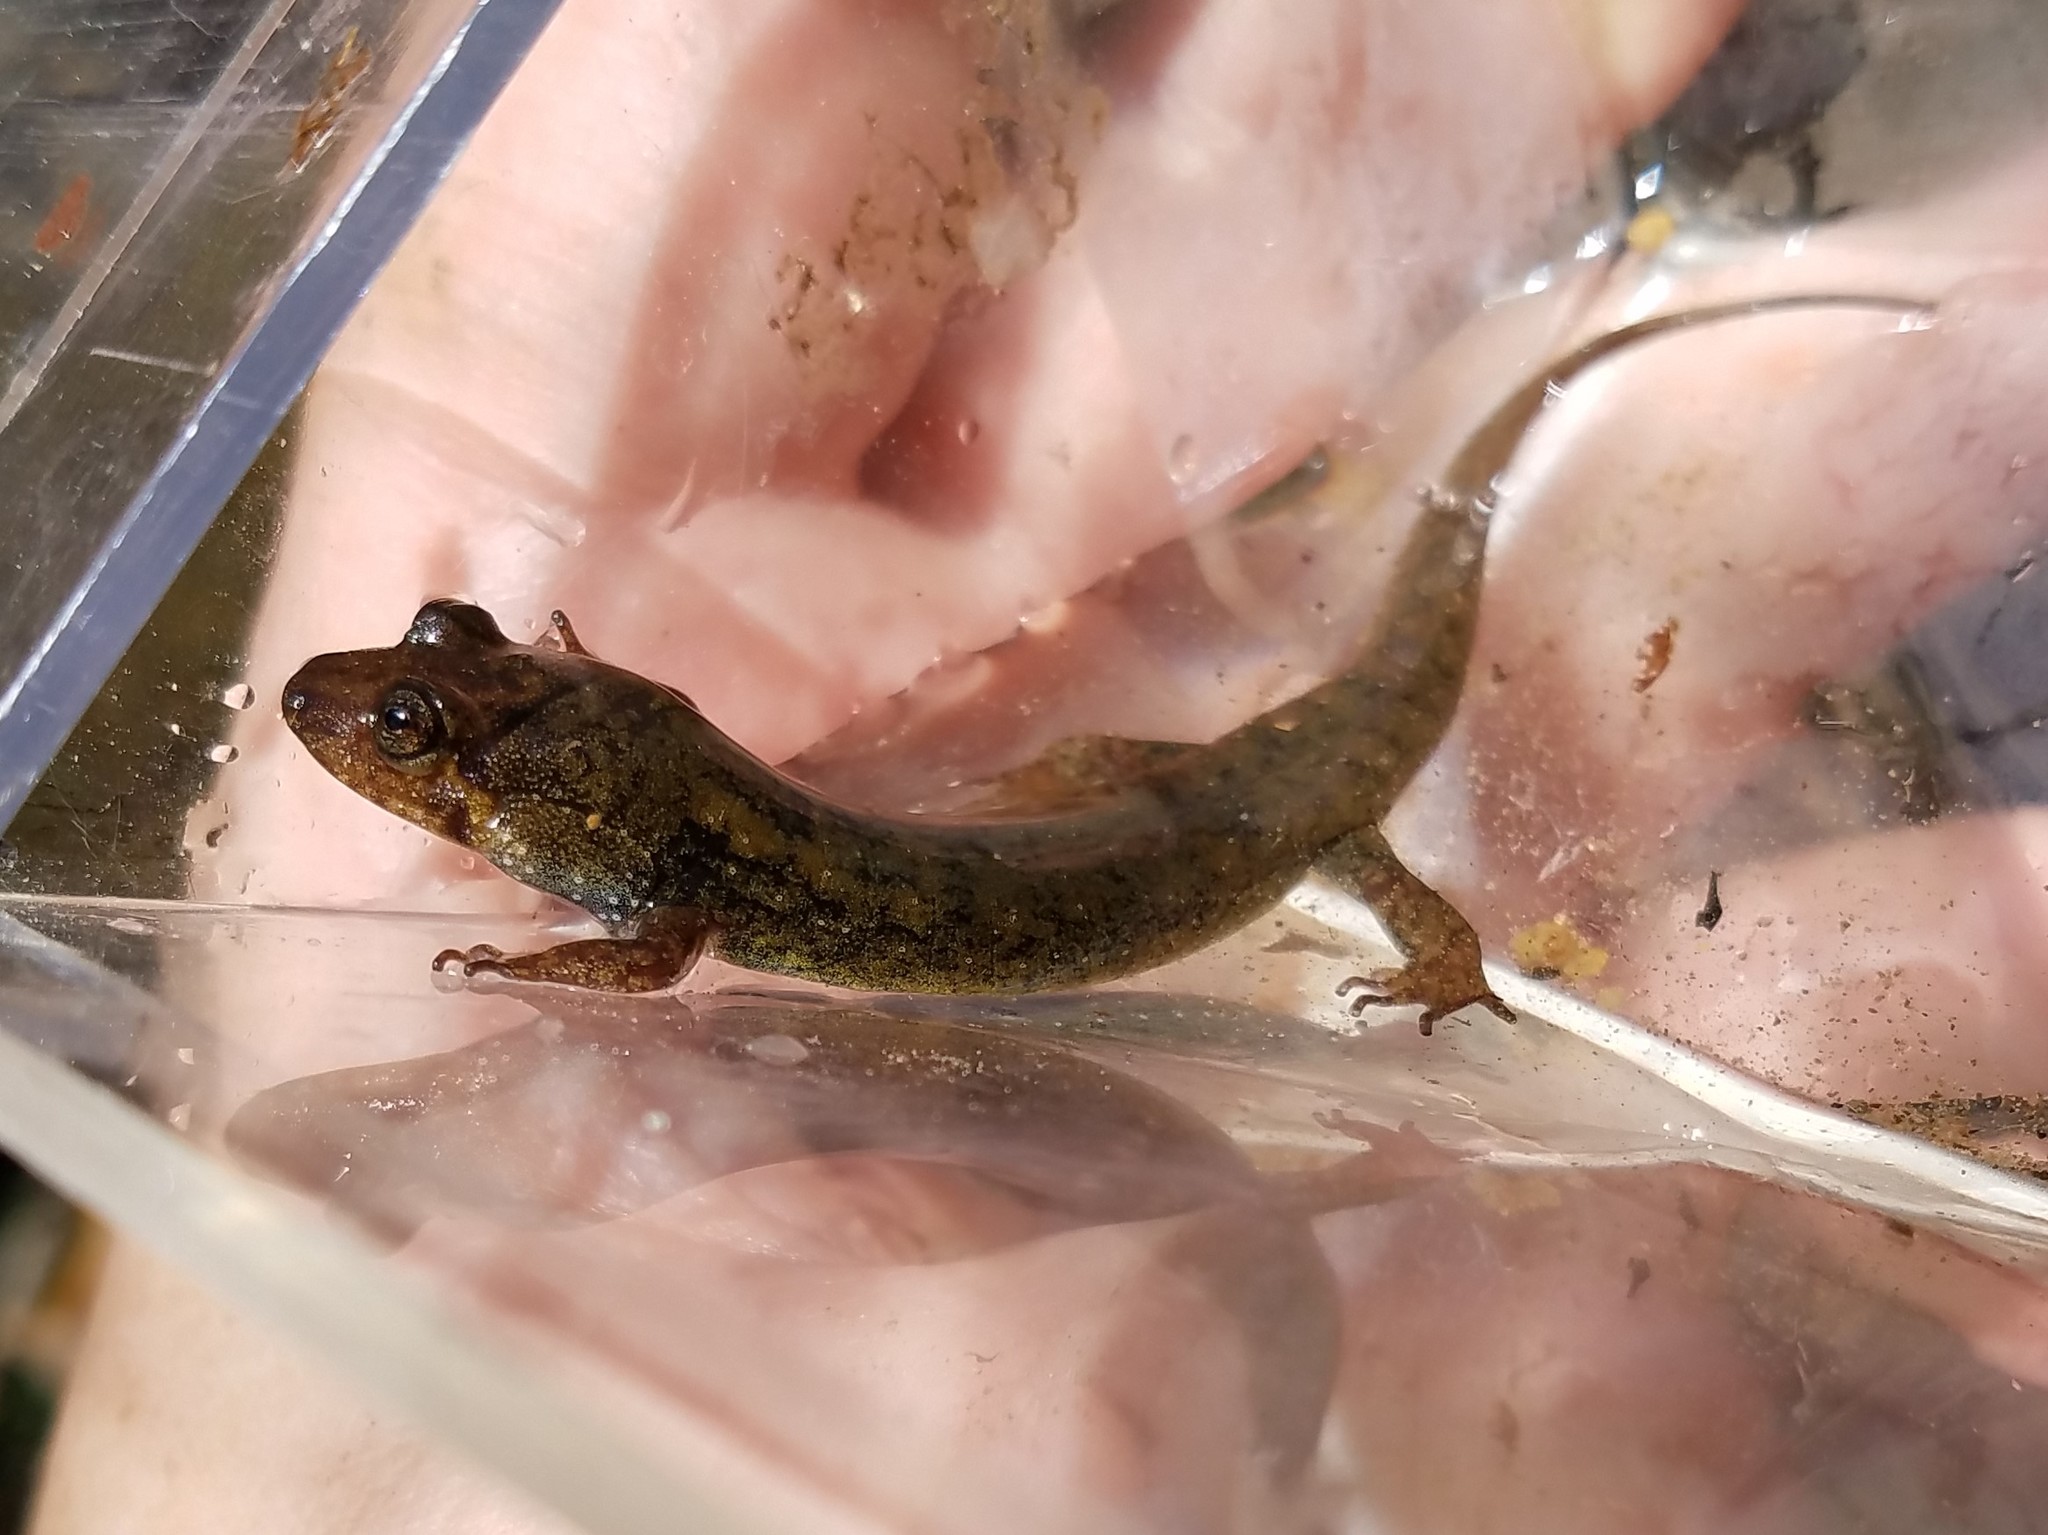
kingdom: Animalia
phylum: Chordata
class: Amphibia
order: Caudata
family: Plethodontidae
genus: Desmognathus
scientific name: Desmognathus folkertsi
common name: Dwarf black-bellied salamander
